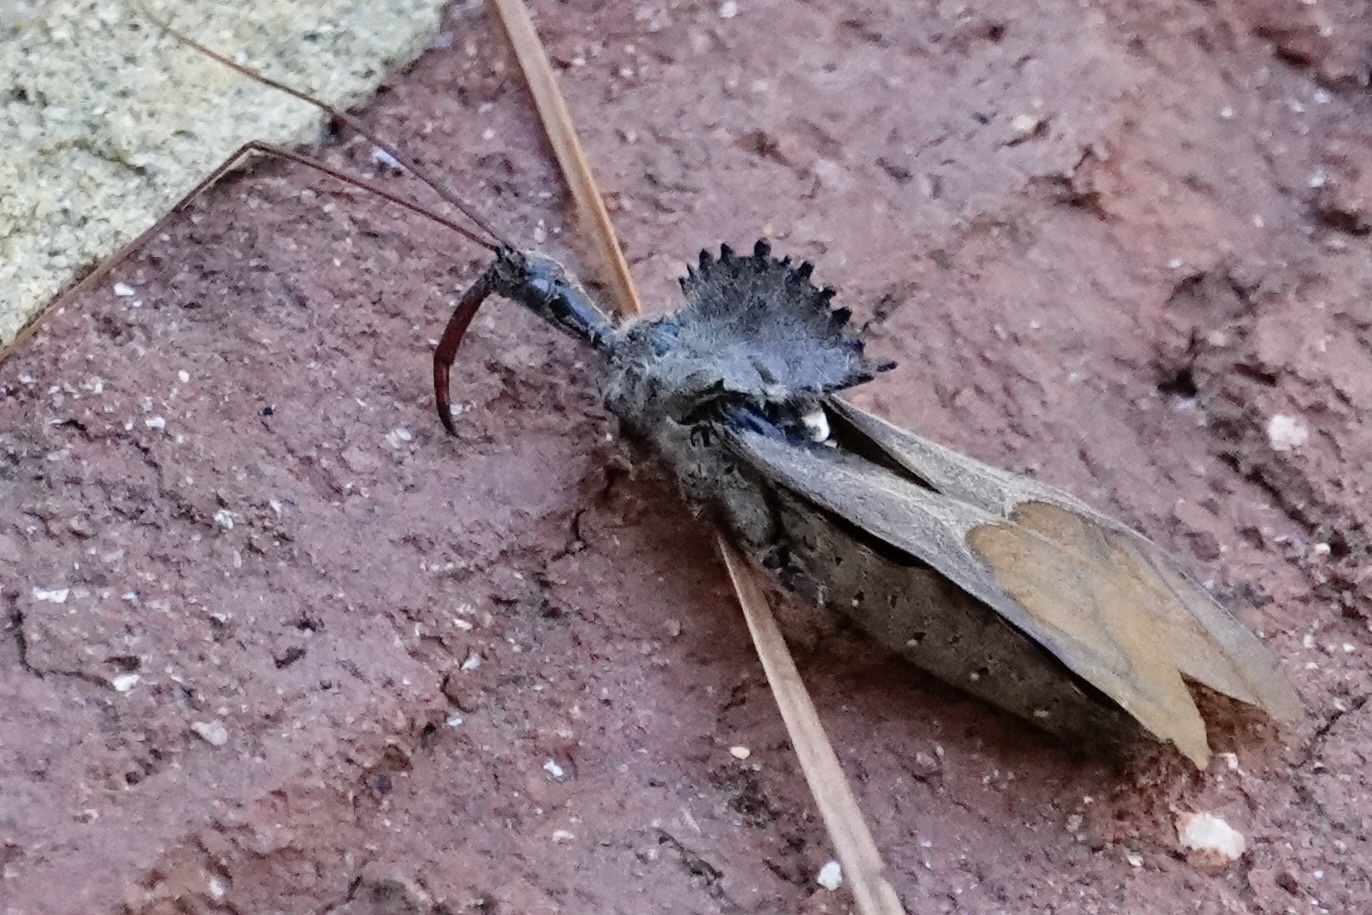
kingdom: Animalia
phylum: Arthropoda
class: Insecta
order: Hemiptera
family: Reduviidae
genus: Arilus
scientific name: Arilus cristatus
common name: North american wheel bug
